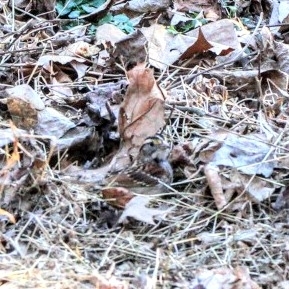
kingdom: Animalia
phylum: Chordata
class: Aves
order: Passeriformes
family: Passerellidae
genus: Zonotrichia
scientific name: Zonotrichia albicollis
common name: White-throated sparrow
